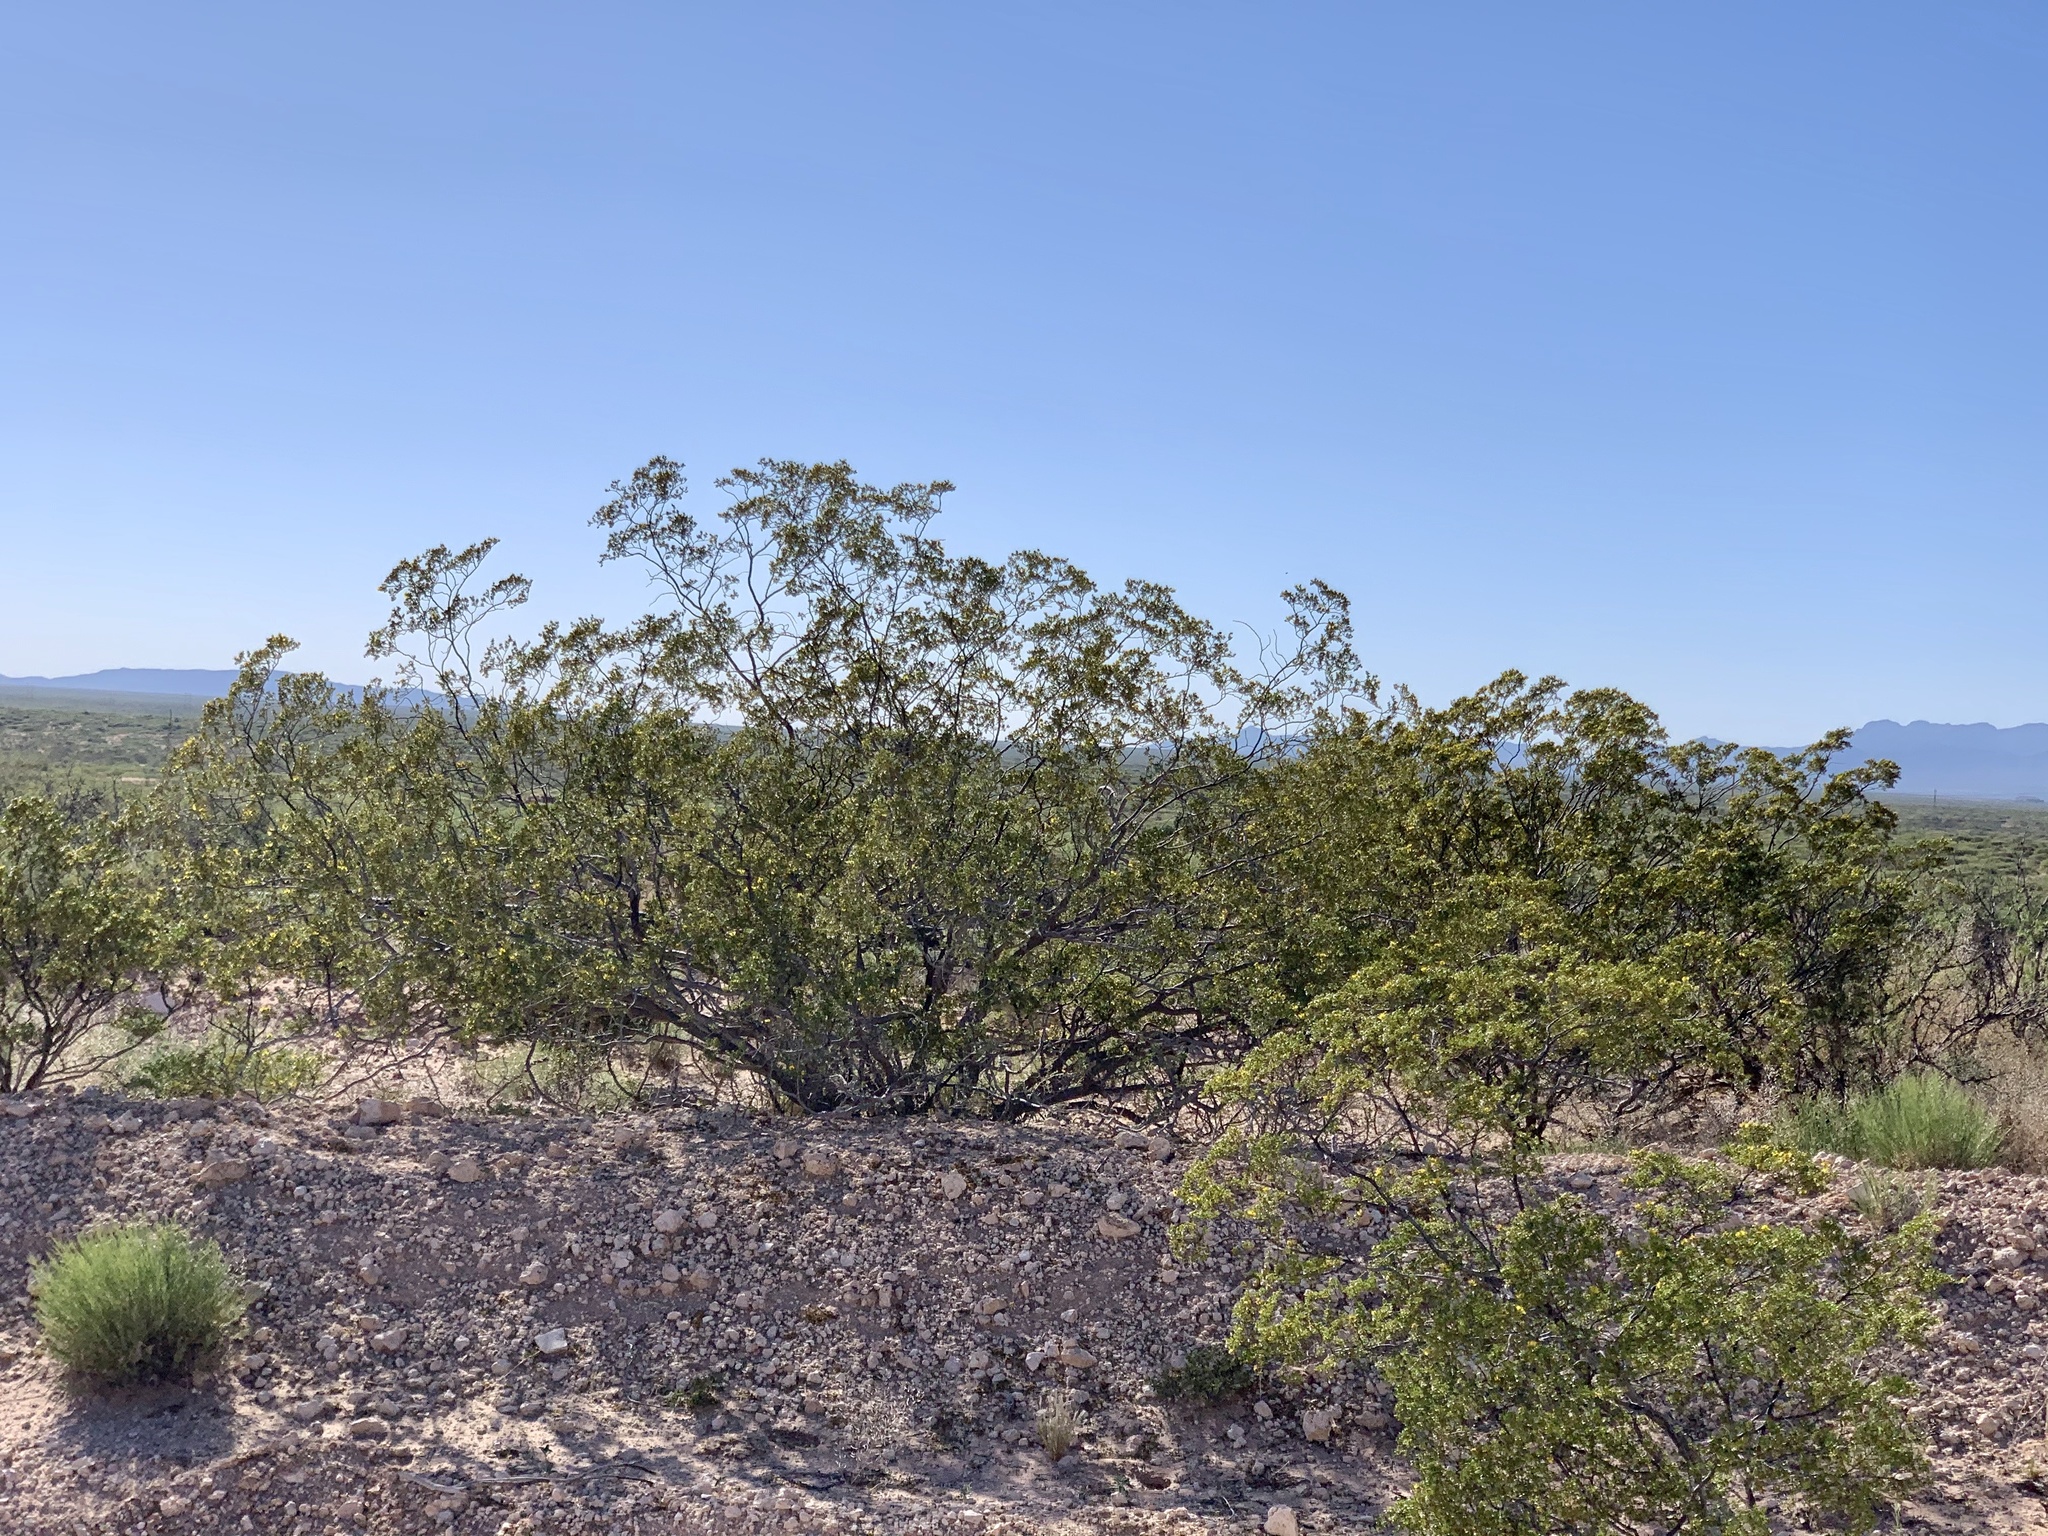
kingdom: Plantae
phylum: Tracheophyta
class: Magnoliopsida
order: Zygophyllales
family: Zygophyllaceae
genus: Larrea
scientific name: Larrea tridentata
